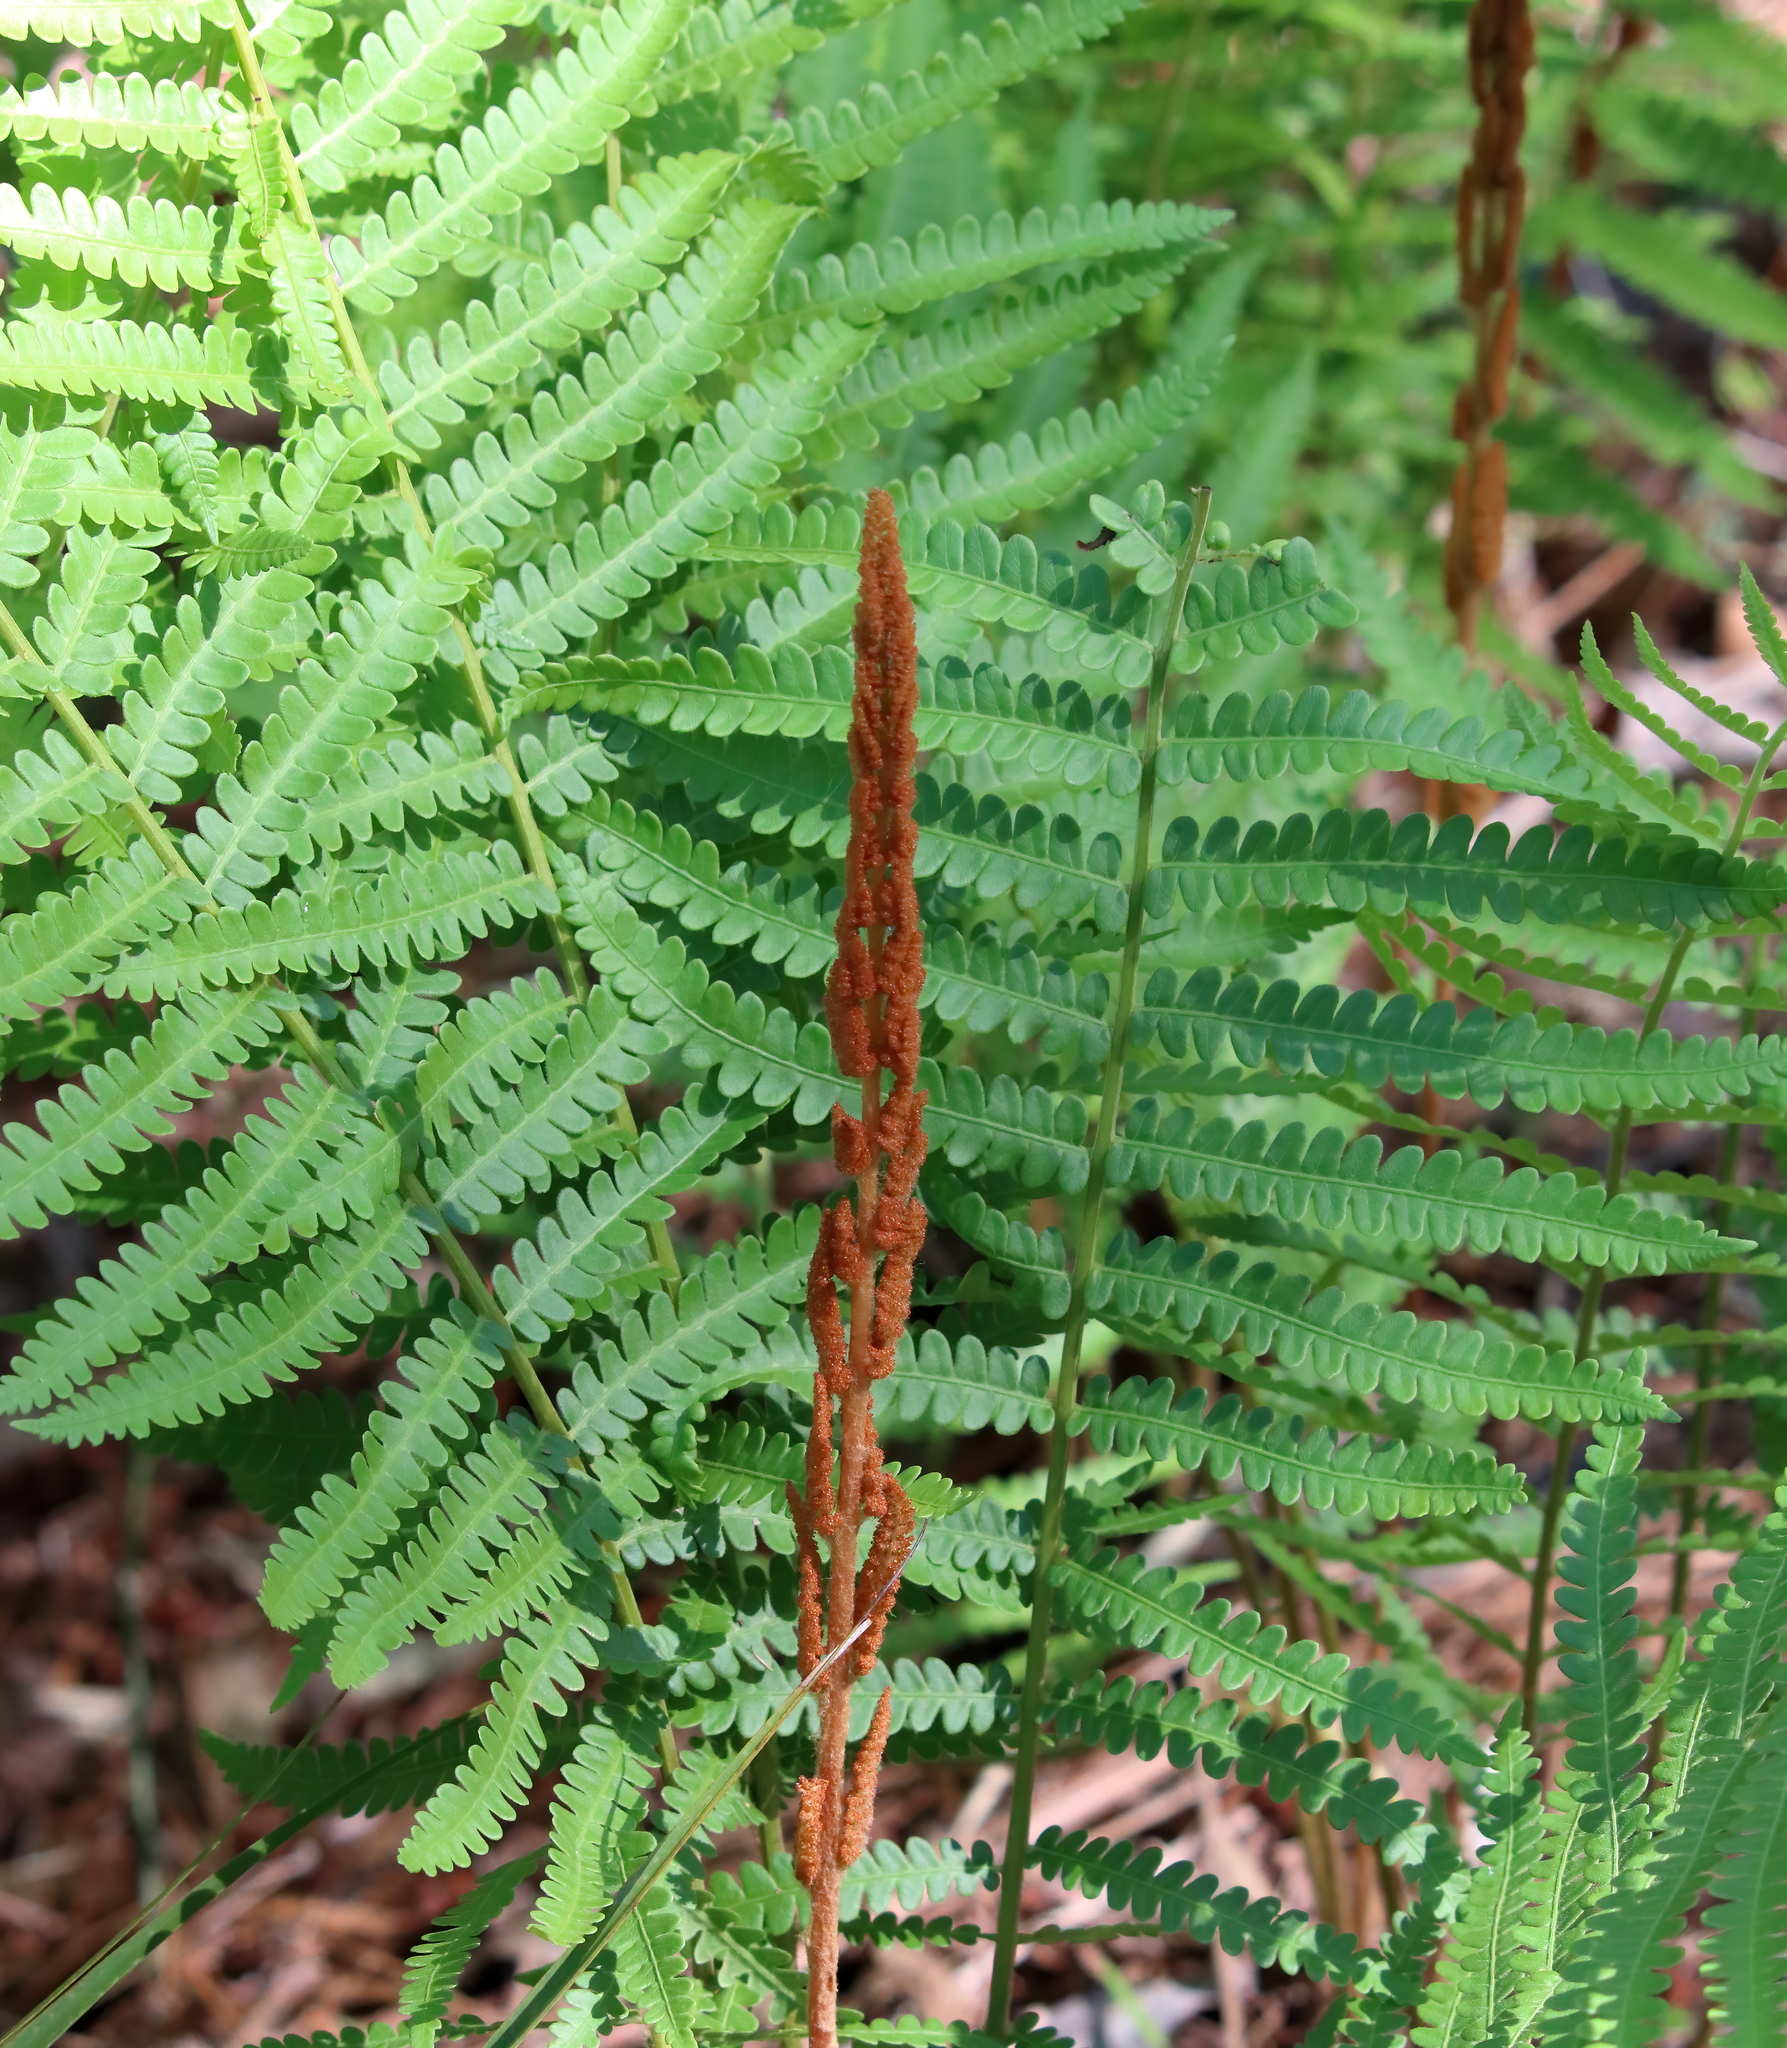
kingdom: Plantae
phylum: Tracheophyta
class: Polypodiopsida
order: Osmundales
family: Osmundaceae
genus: Osmundastrum
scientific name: Osmundastrum cinnamomeum
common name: Cinnamon fern
